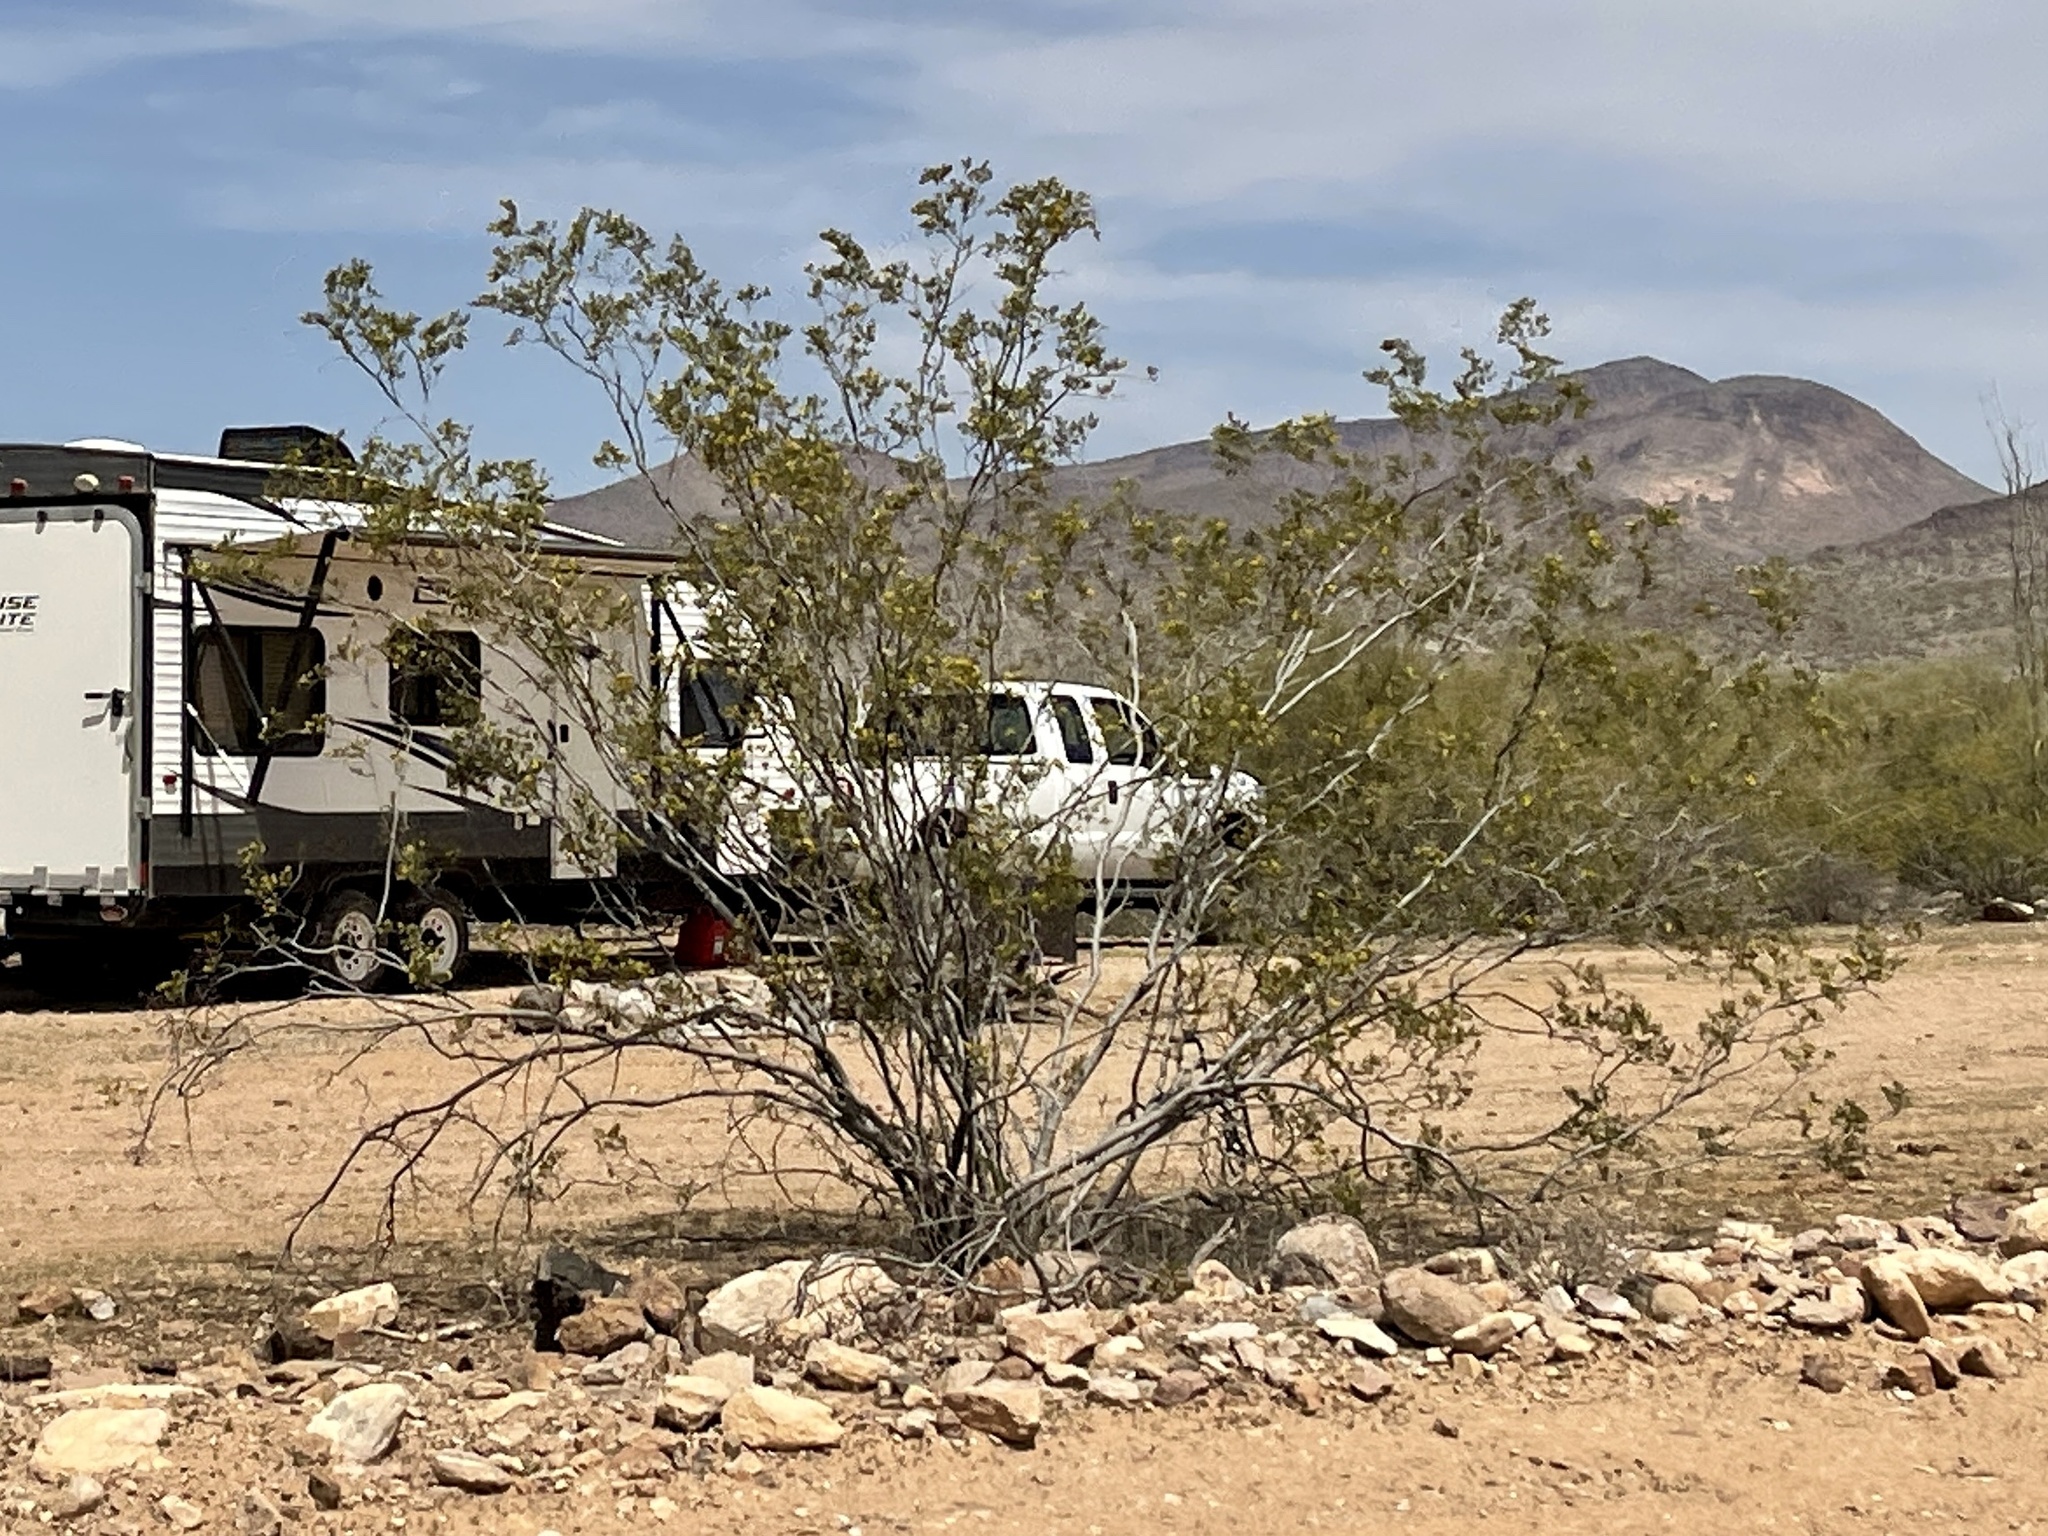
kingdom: Plantae
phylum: Tracheophyta
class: Magnoliopsida
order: Zygophyllales
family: Zygophyllaceae
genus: Larrea
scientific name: Larrea tridentata
